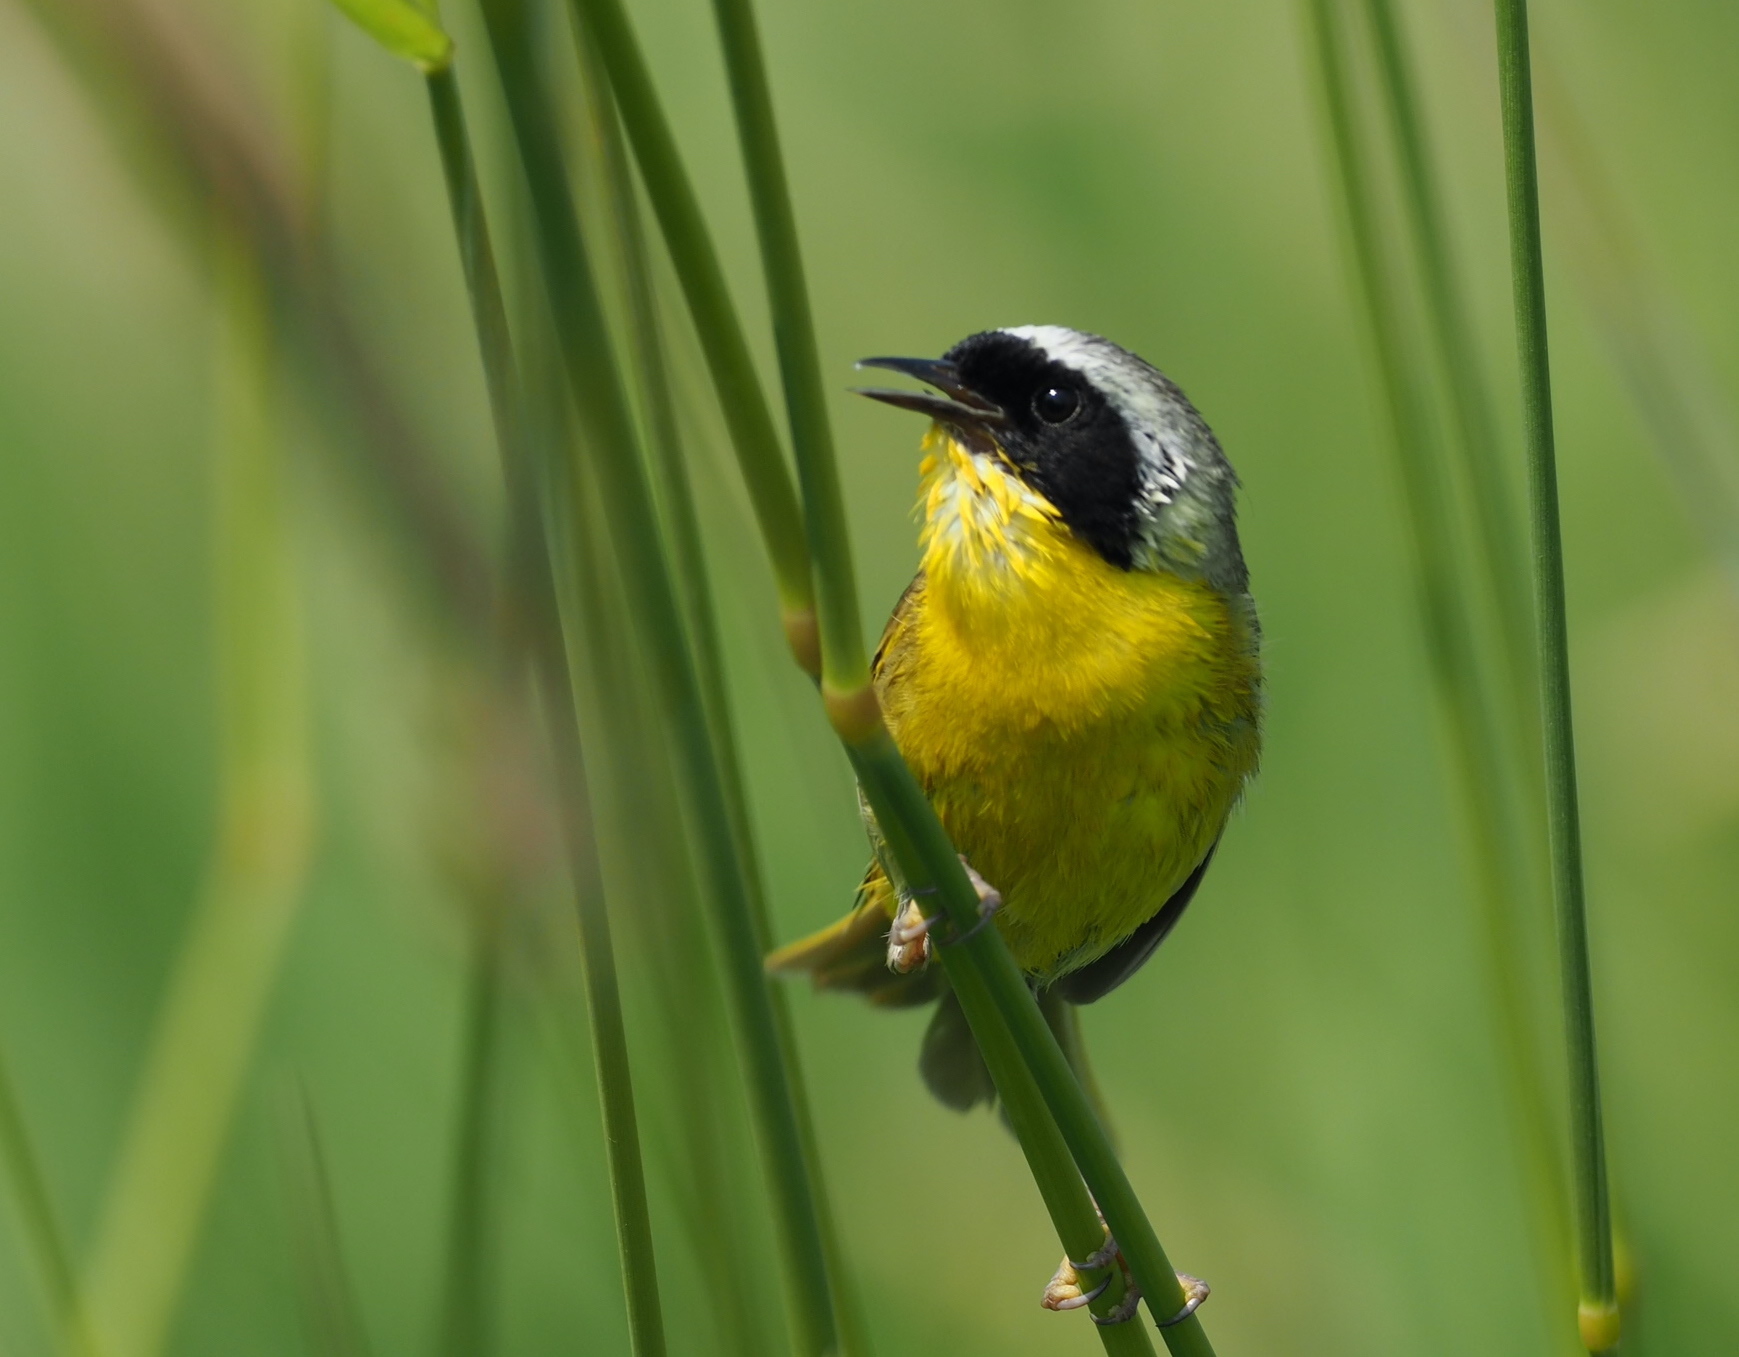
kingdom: Animalia
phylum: Chordata
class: Aves
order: Passeriformes
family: Parulidae
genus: Geothlypis
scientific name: Geothlypis trichas
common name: Common yellowthroat
